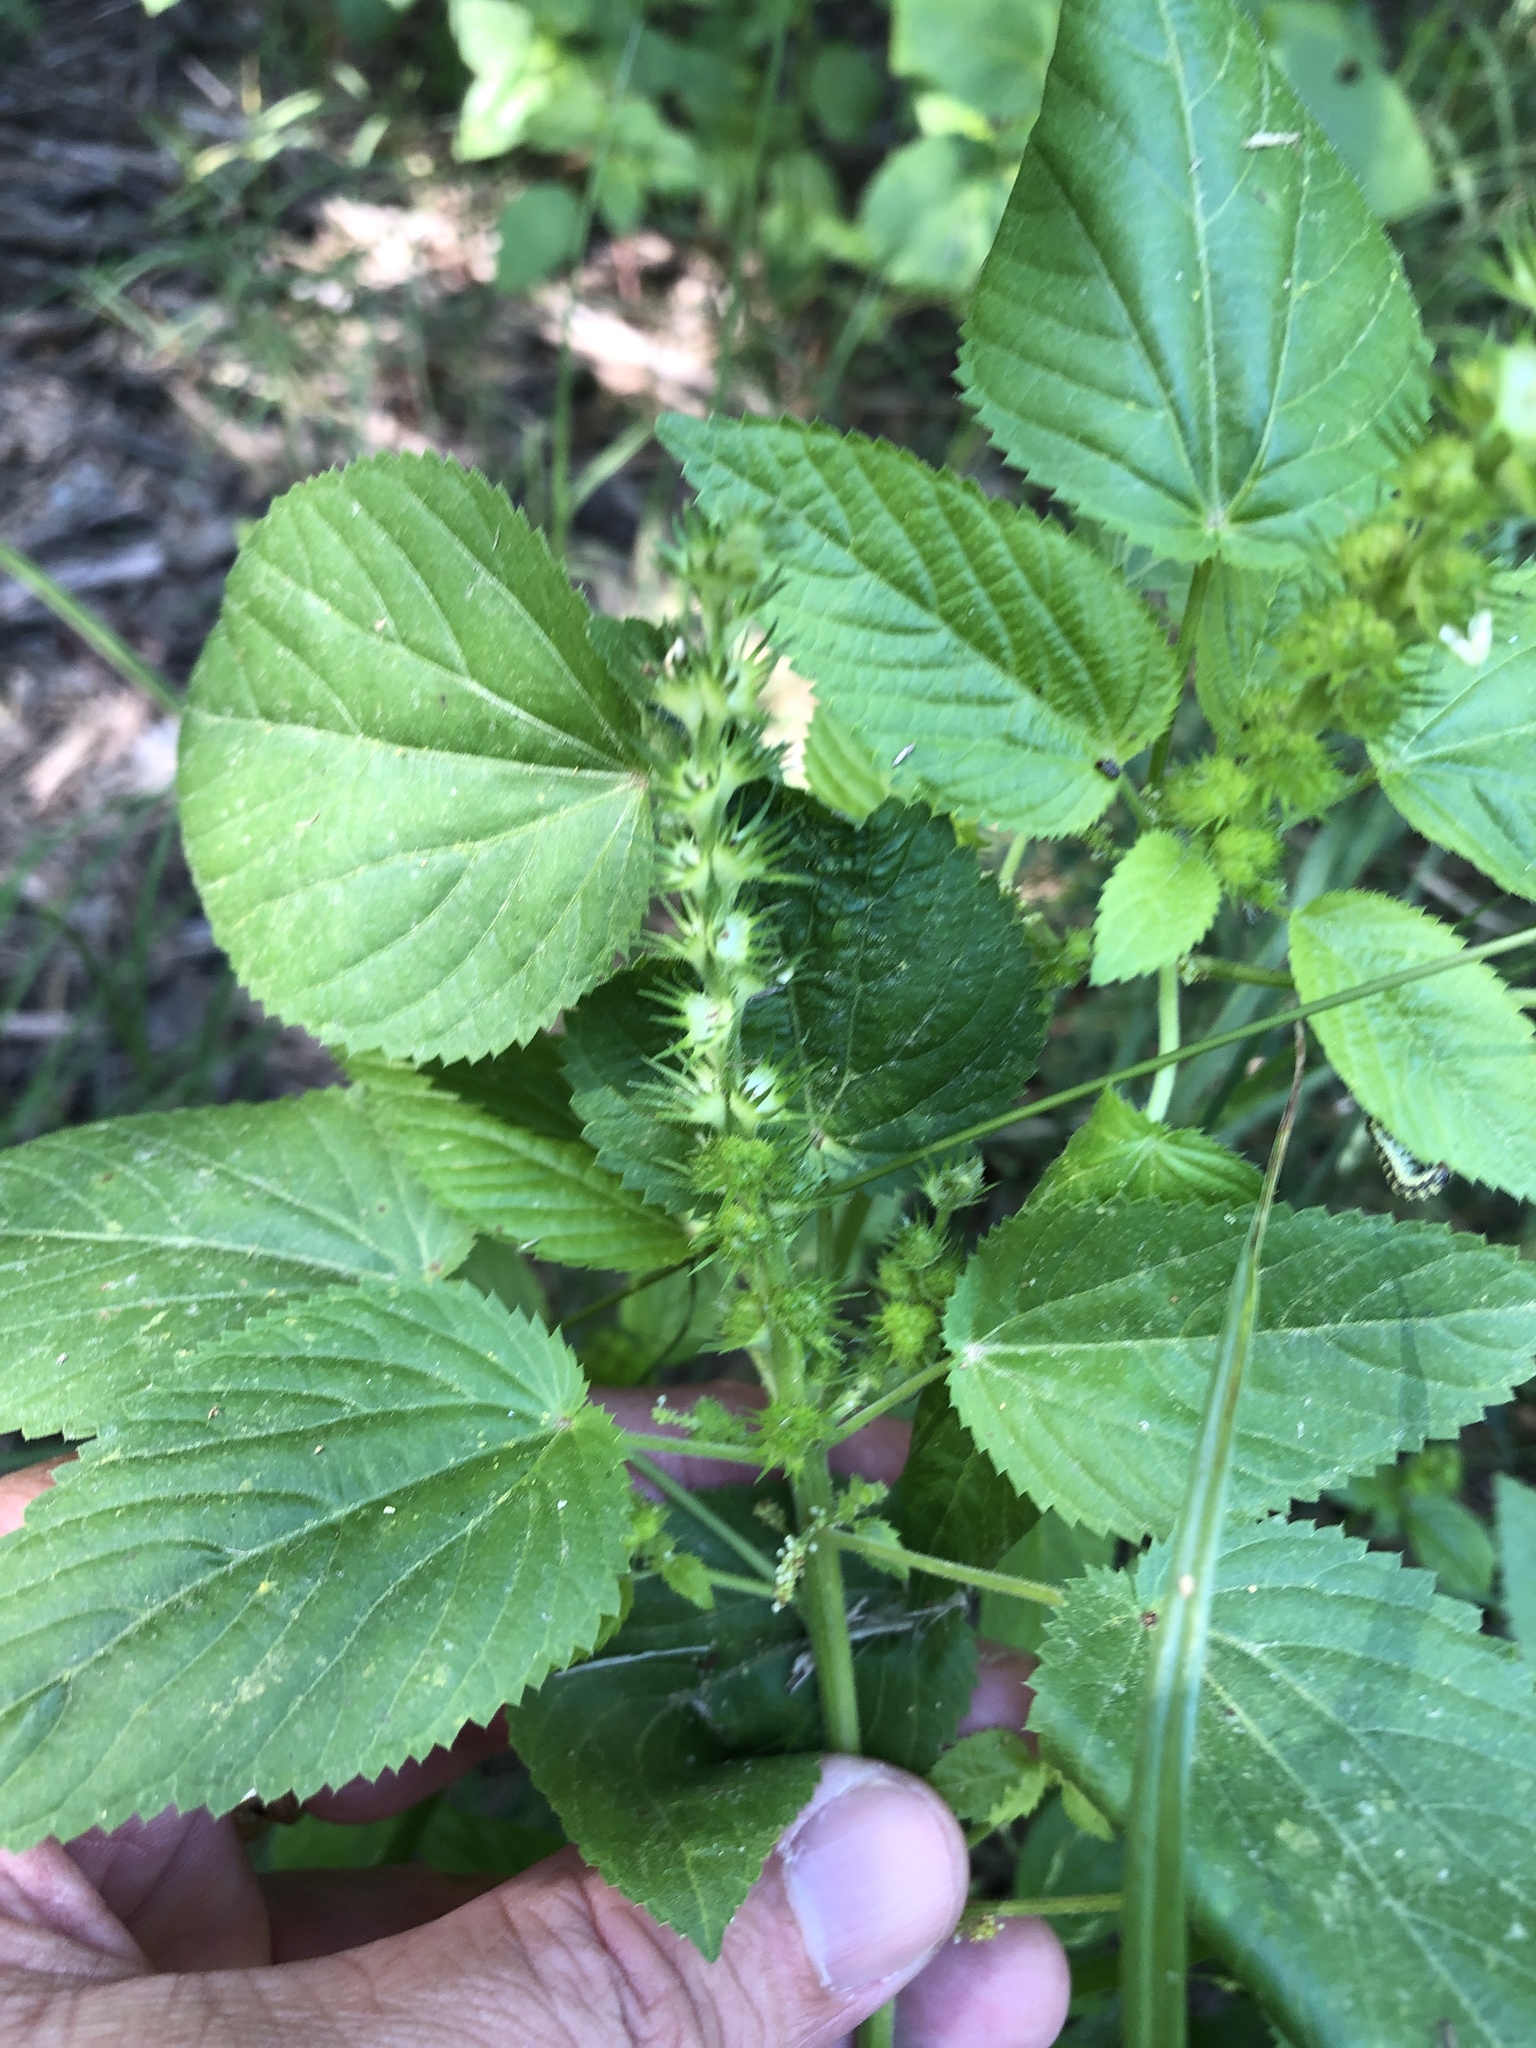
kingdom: Plantae
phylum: Tracheophyta
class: Magnoliopsida
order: Malpighiales
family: Euphorbiaceae
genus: Acalypha
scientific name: Acalypha ostryifolia
